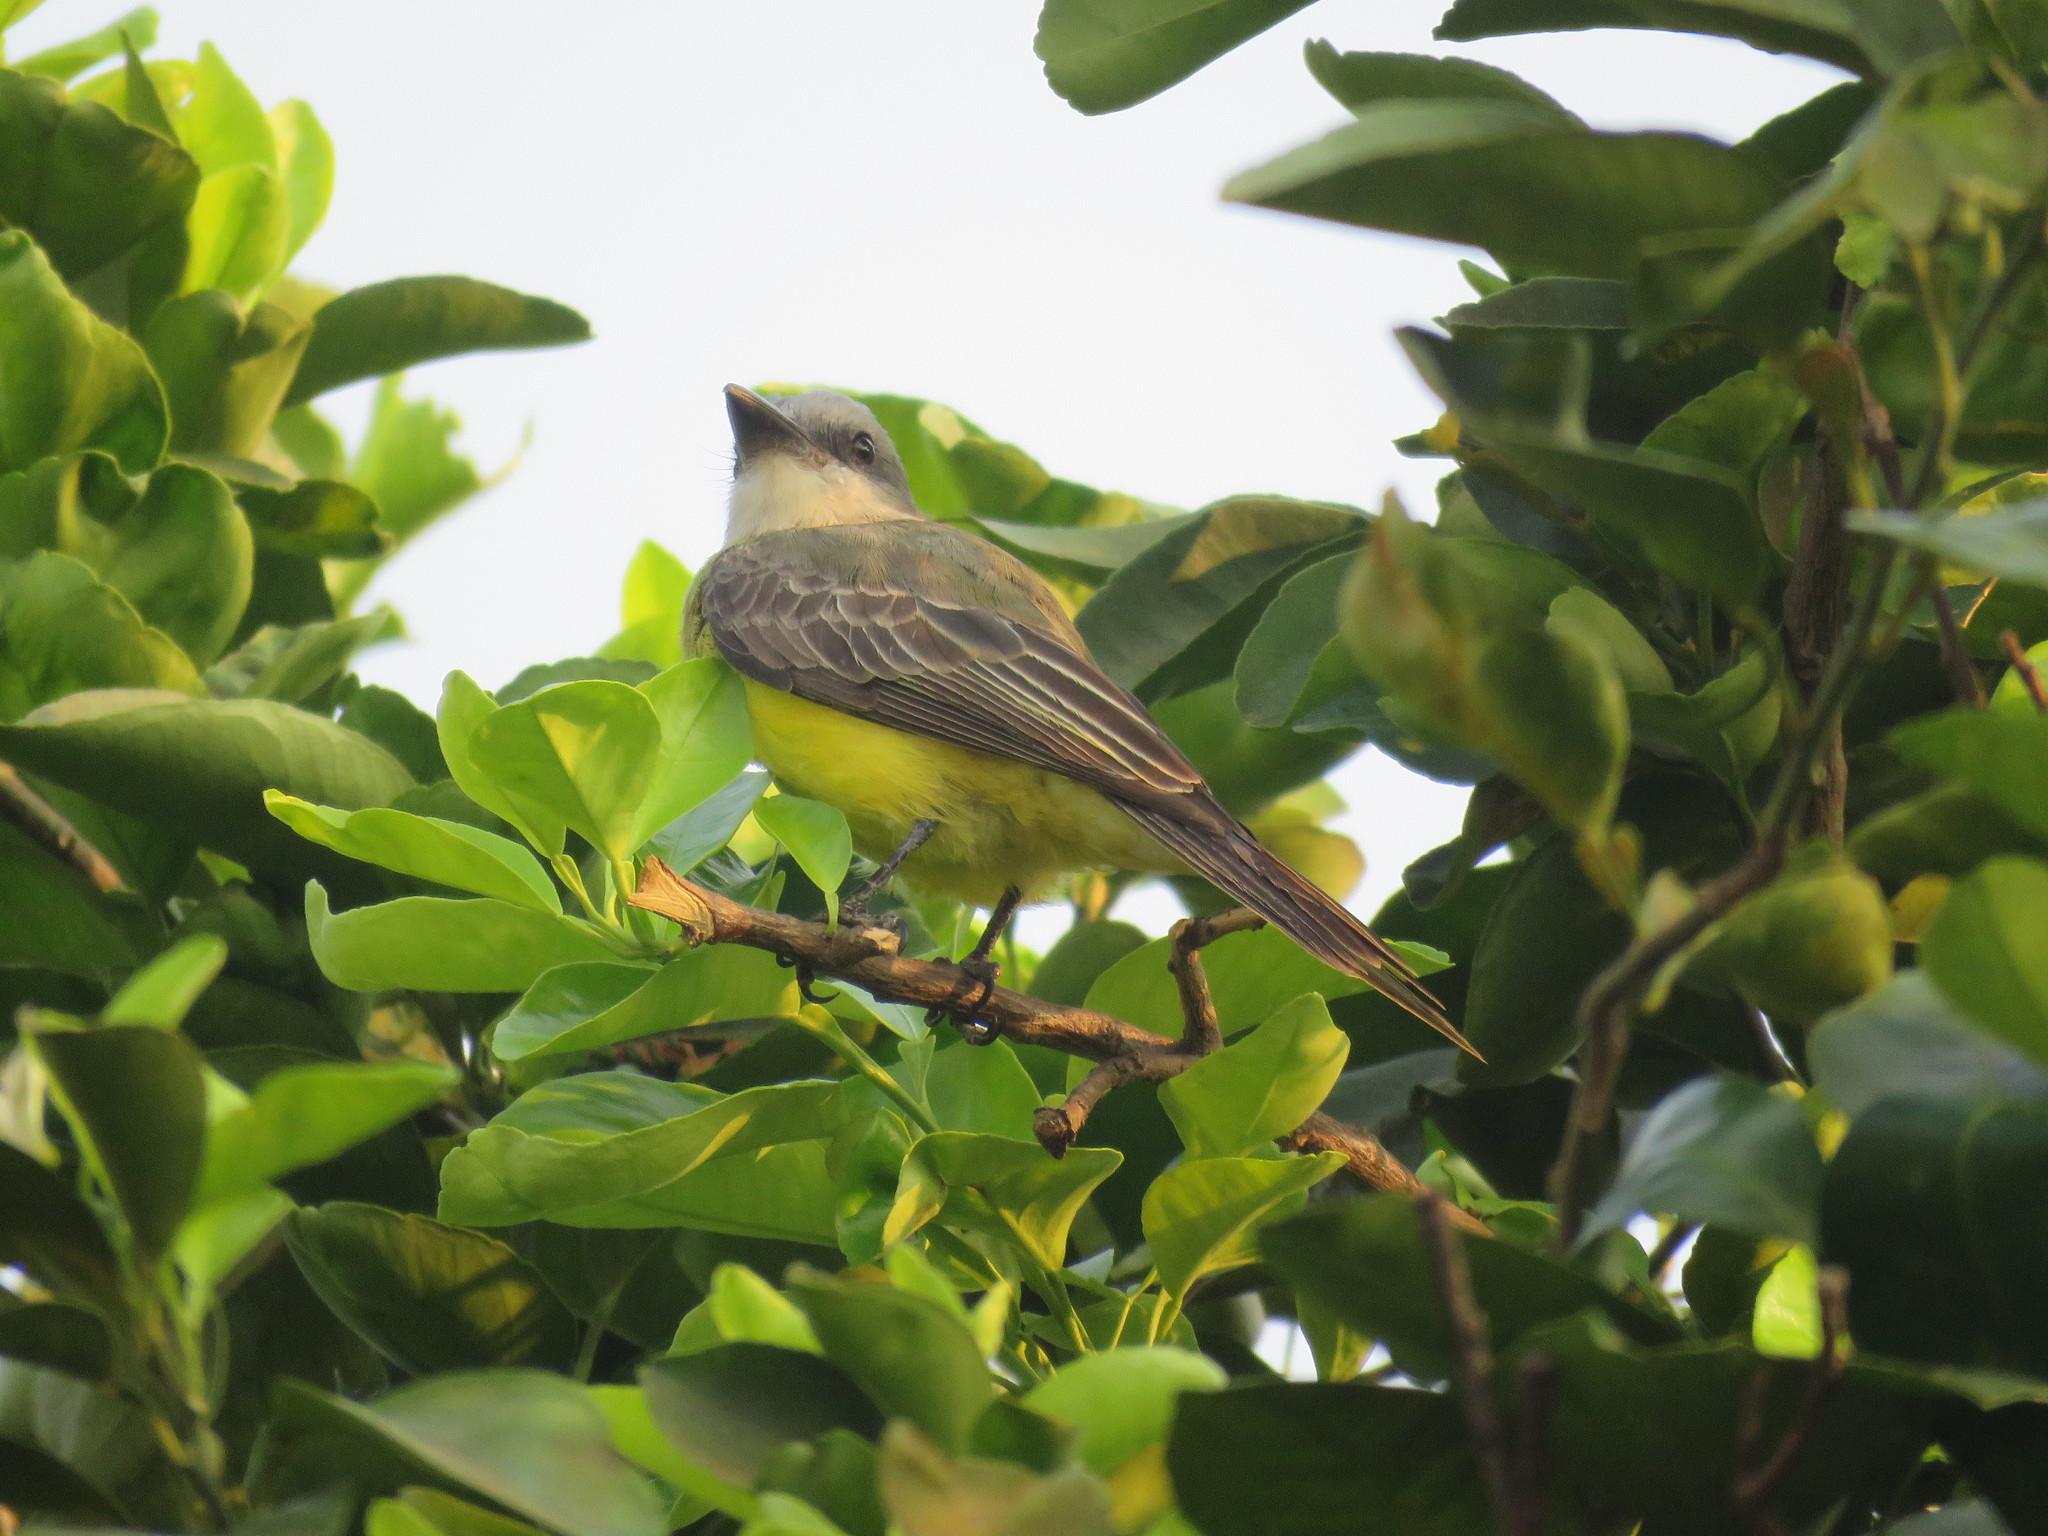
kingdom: Animalia
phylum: Chordata
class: Aves
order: Passeriformes
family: Tyrannidae
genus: Tyrannus
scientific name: Tyrannus melancholicus
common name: Tropical kingbird
